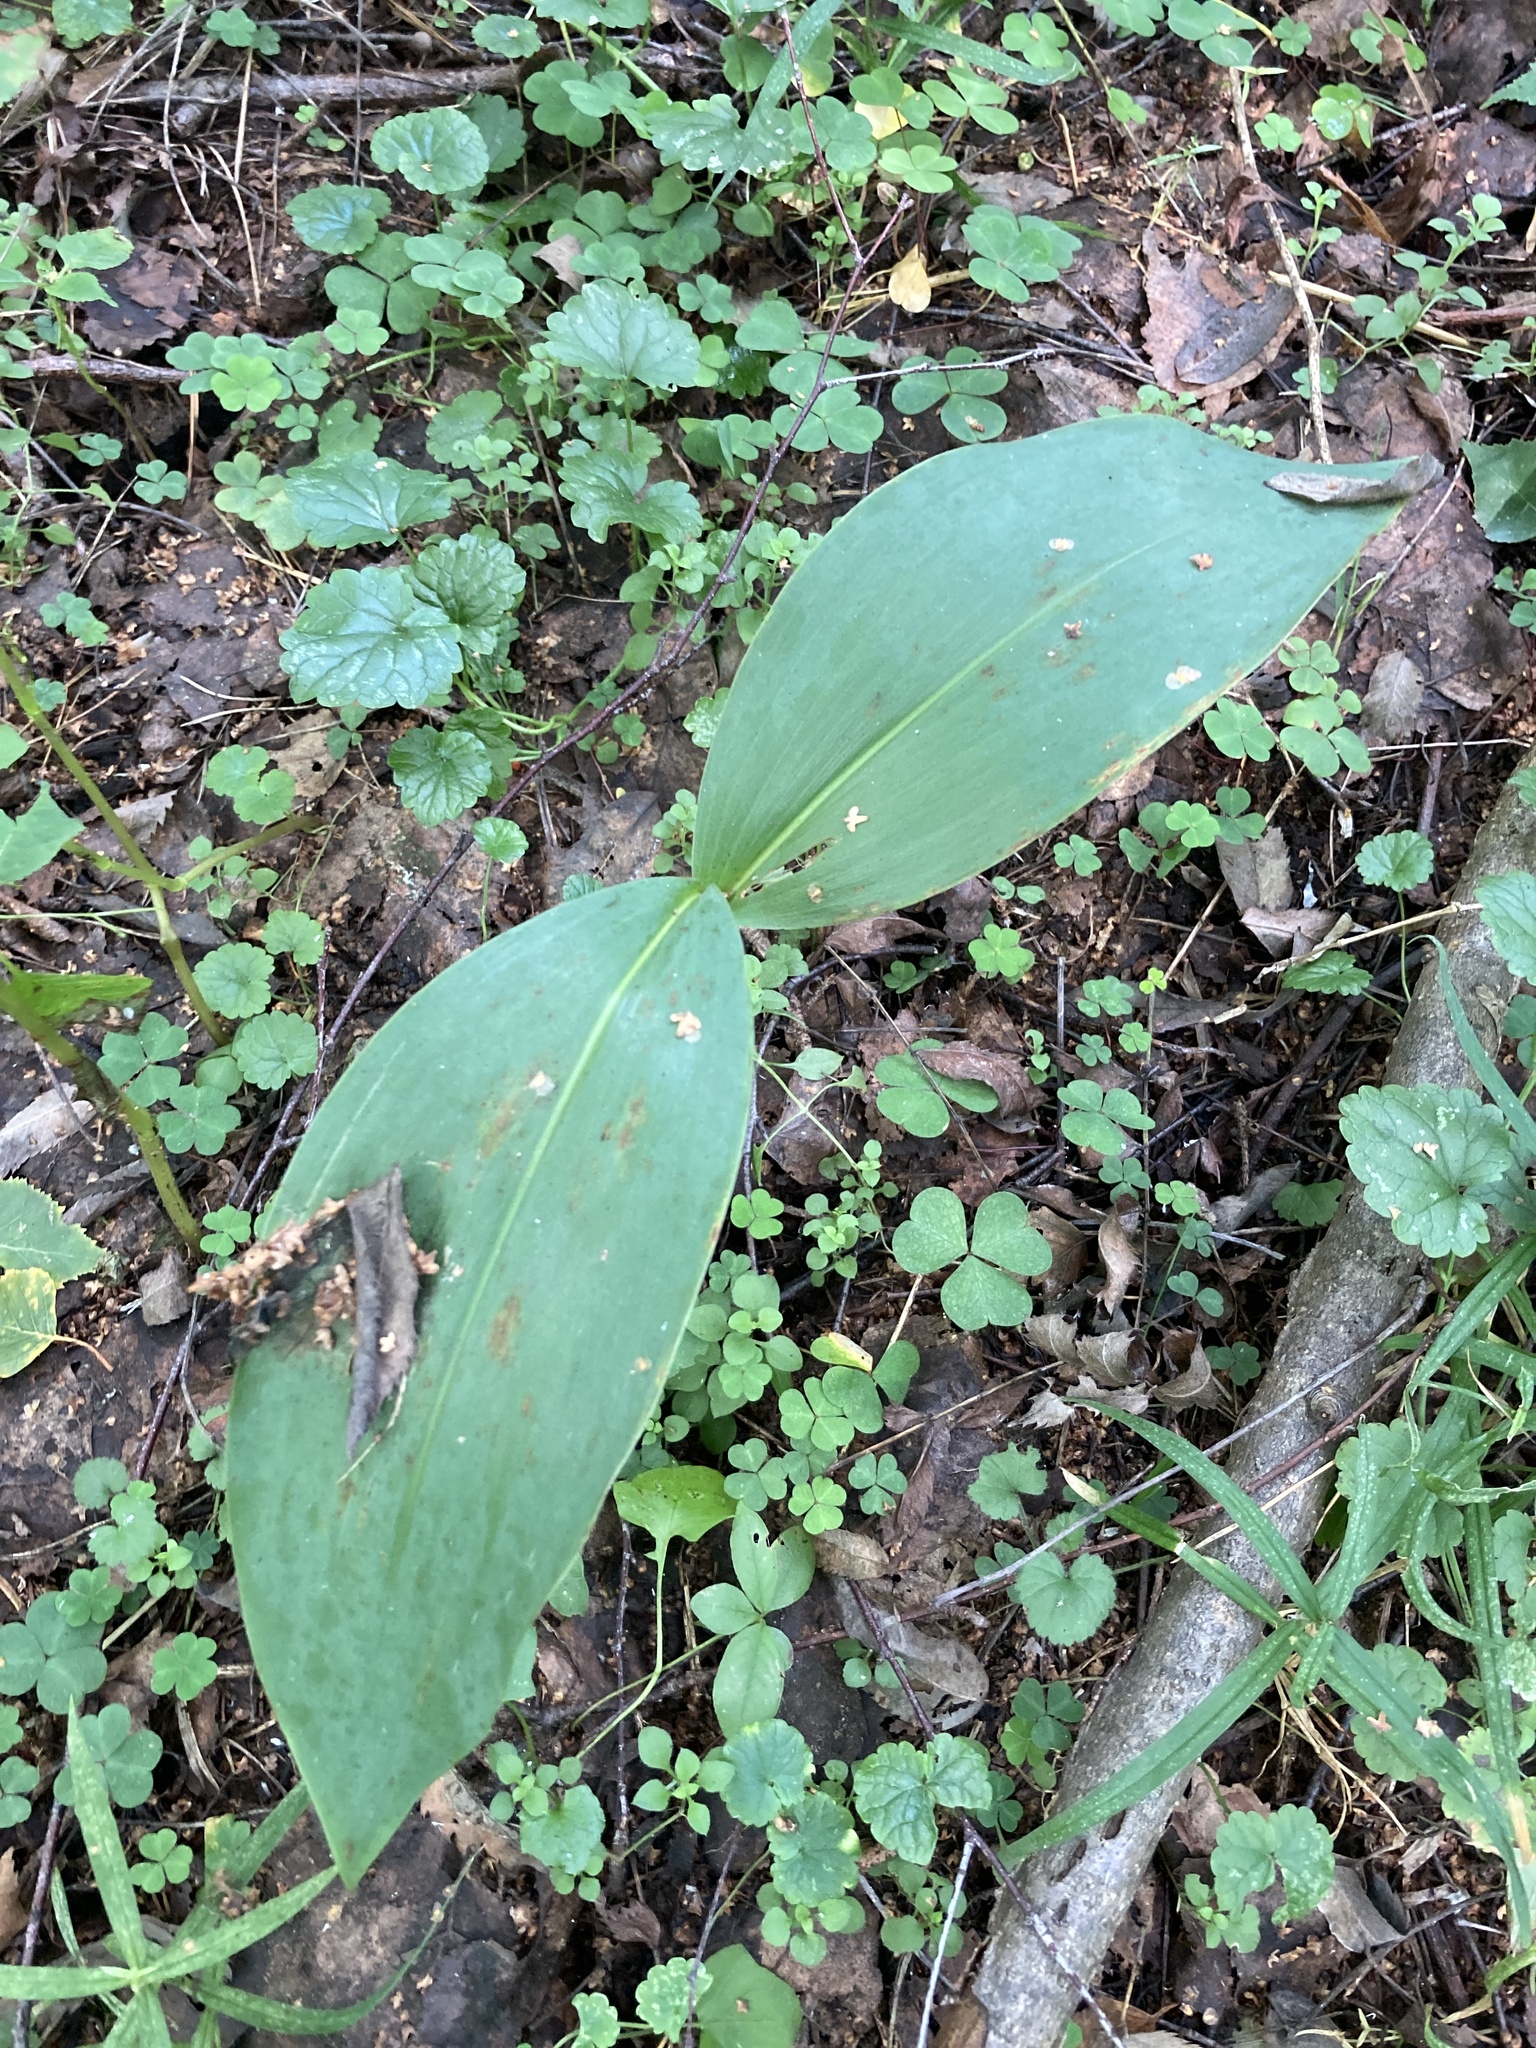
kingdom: Plantae
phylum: Tracheophyta
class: Liliopsida
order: Asparagales
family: Asparagaceae
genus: Convallaria
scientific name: Convallaria majalis
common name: Lily-of-the-valley
